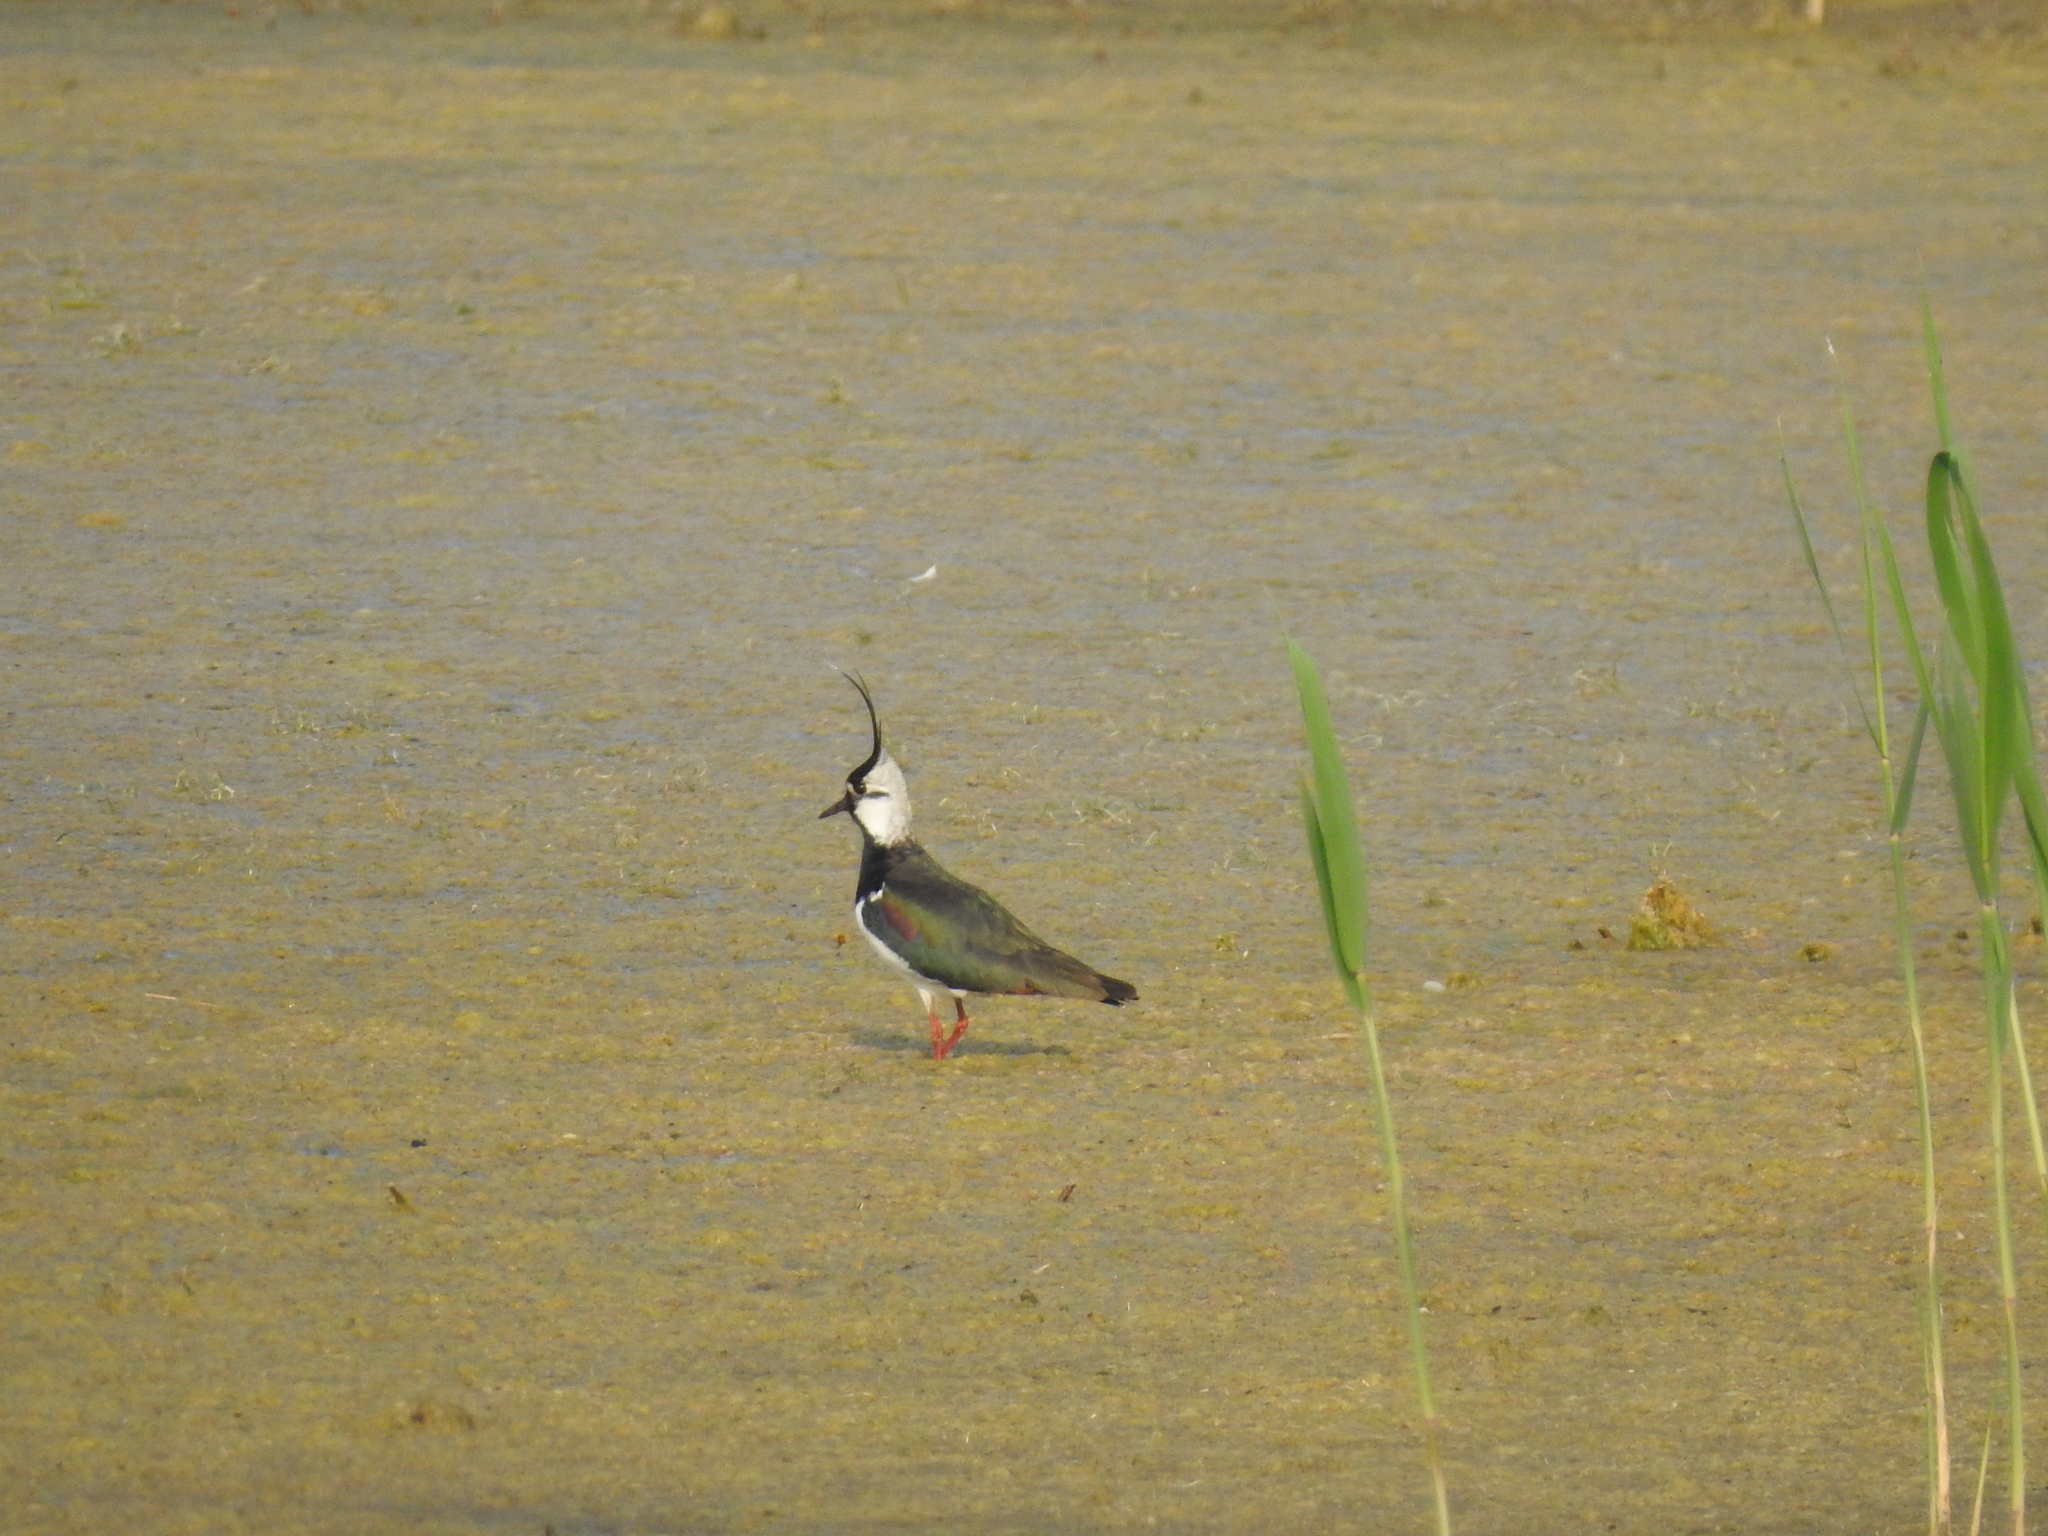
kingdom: Animalia
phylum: Chordata
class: Aves
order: Charadriiformes
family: Charadriidae
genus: Vanellus
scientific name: Vanellus vanellus
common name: Northern lapwing
